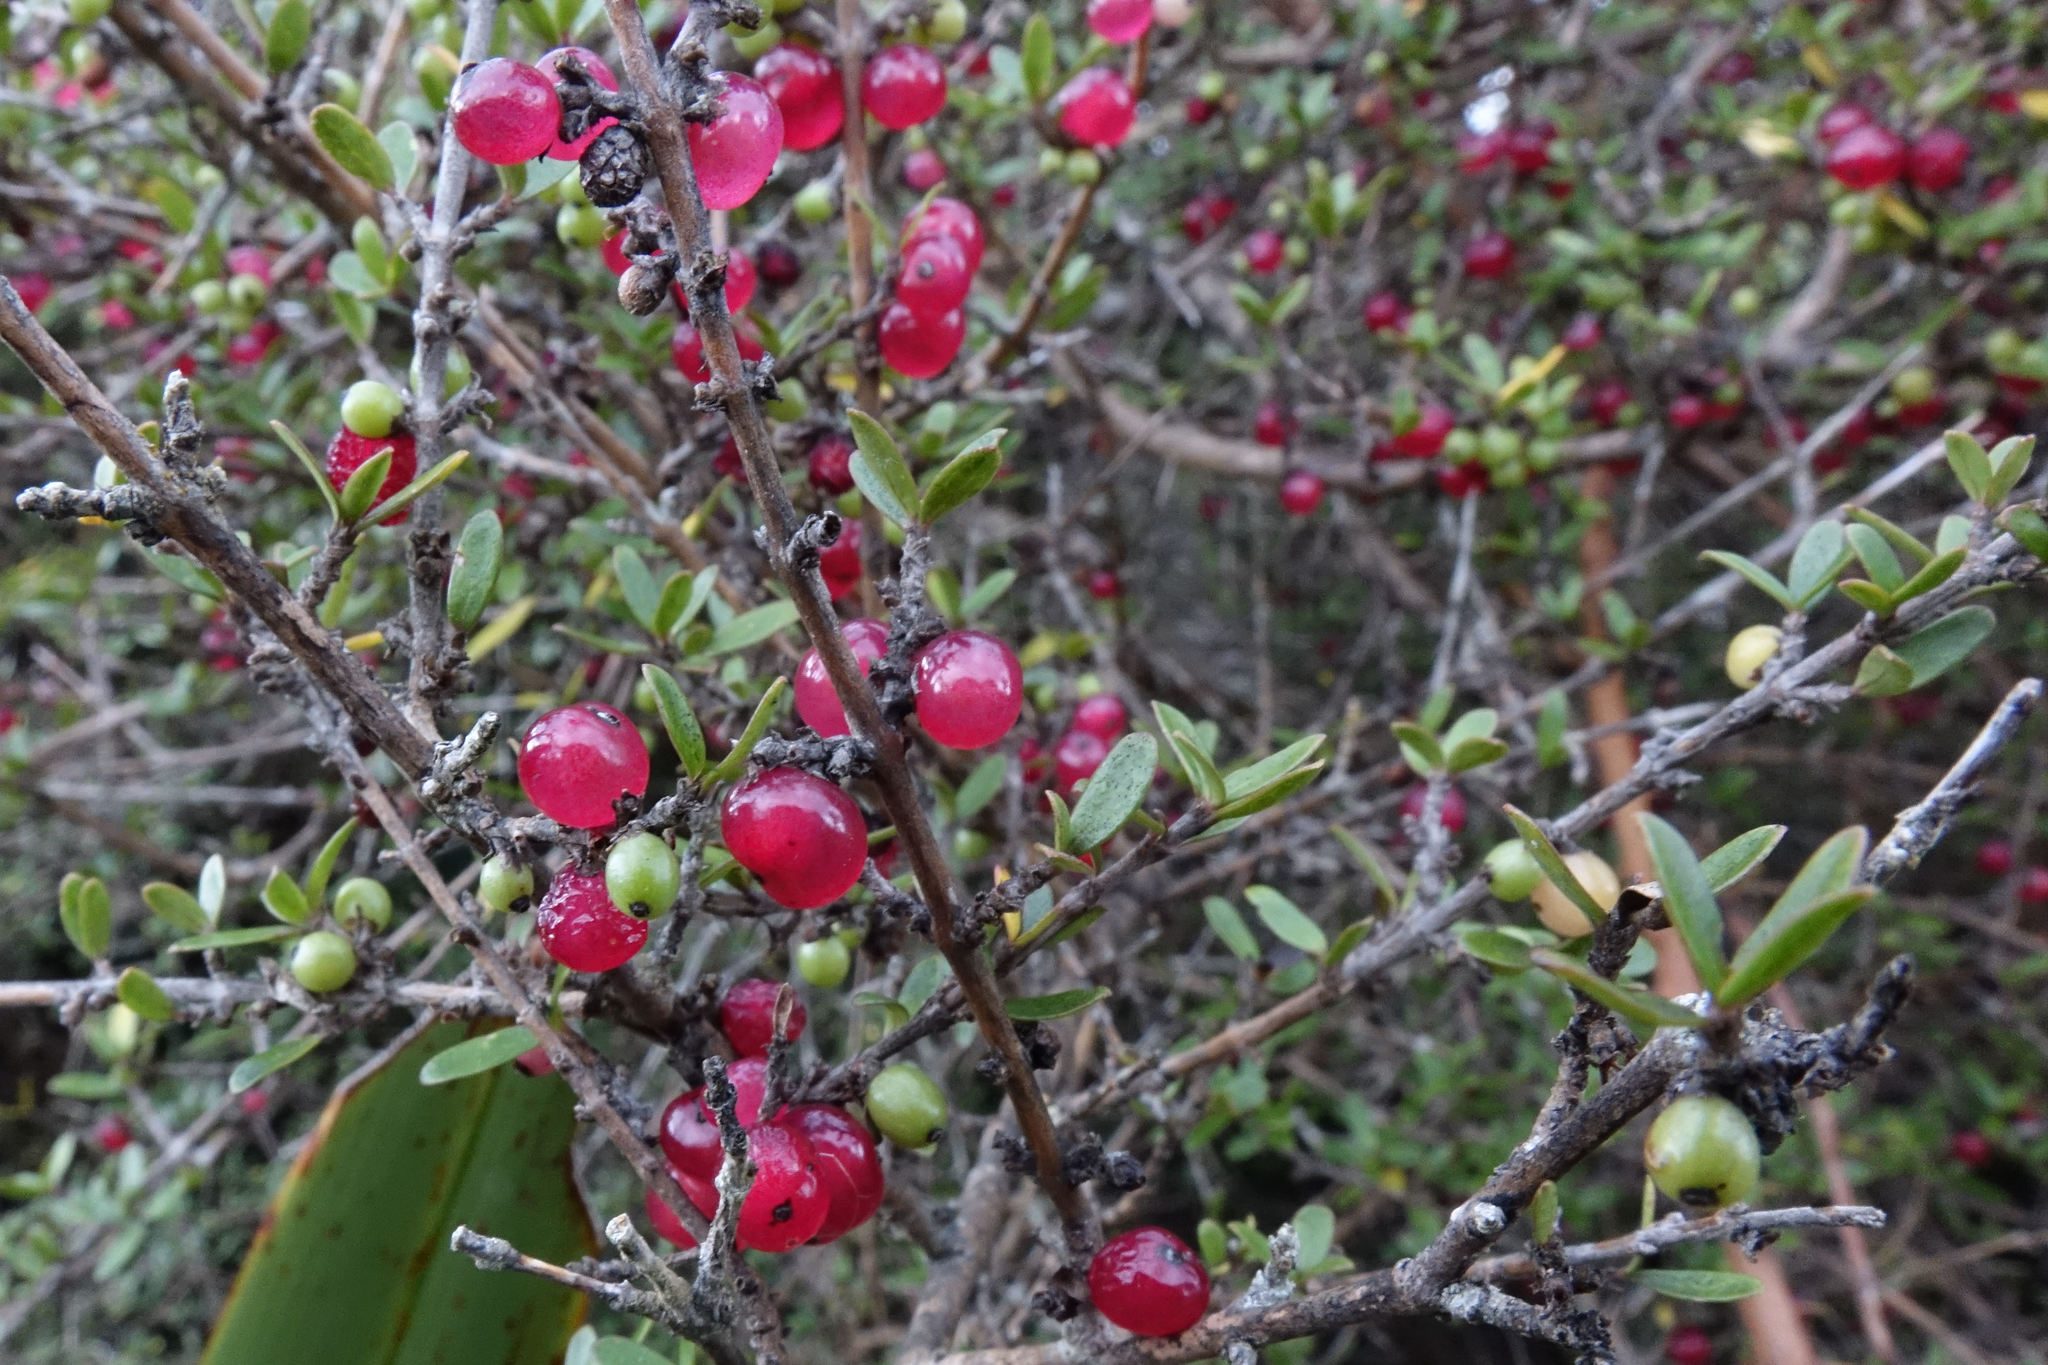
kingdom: Plantae
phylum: Tracheophyta
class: Magnoliopsida
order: Gentianales
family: Rubiaceae
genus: Coprosma
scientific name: Coprosma dumosa
